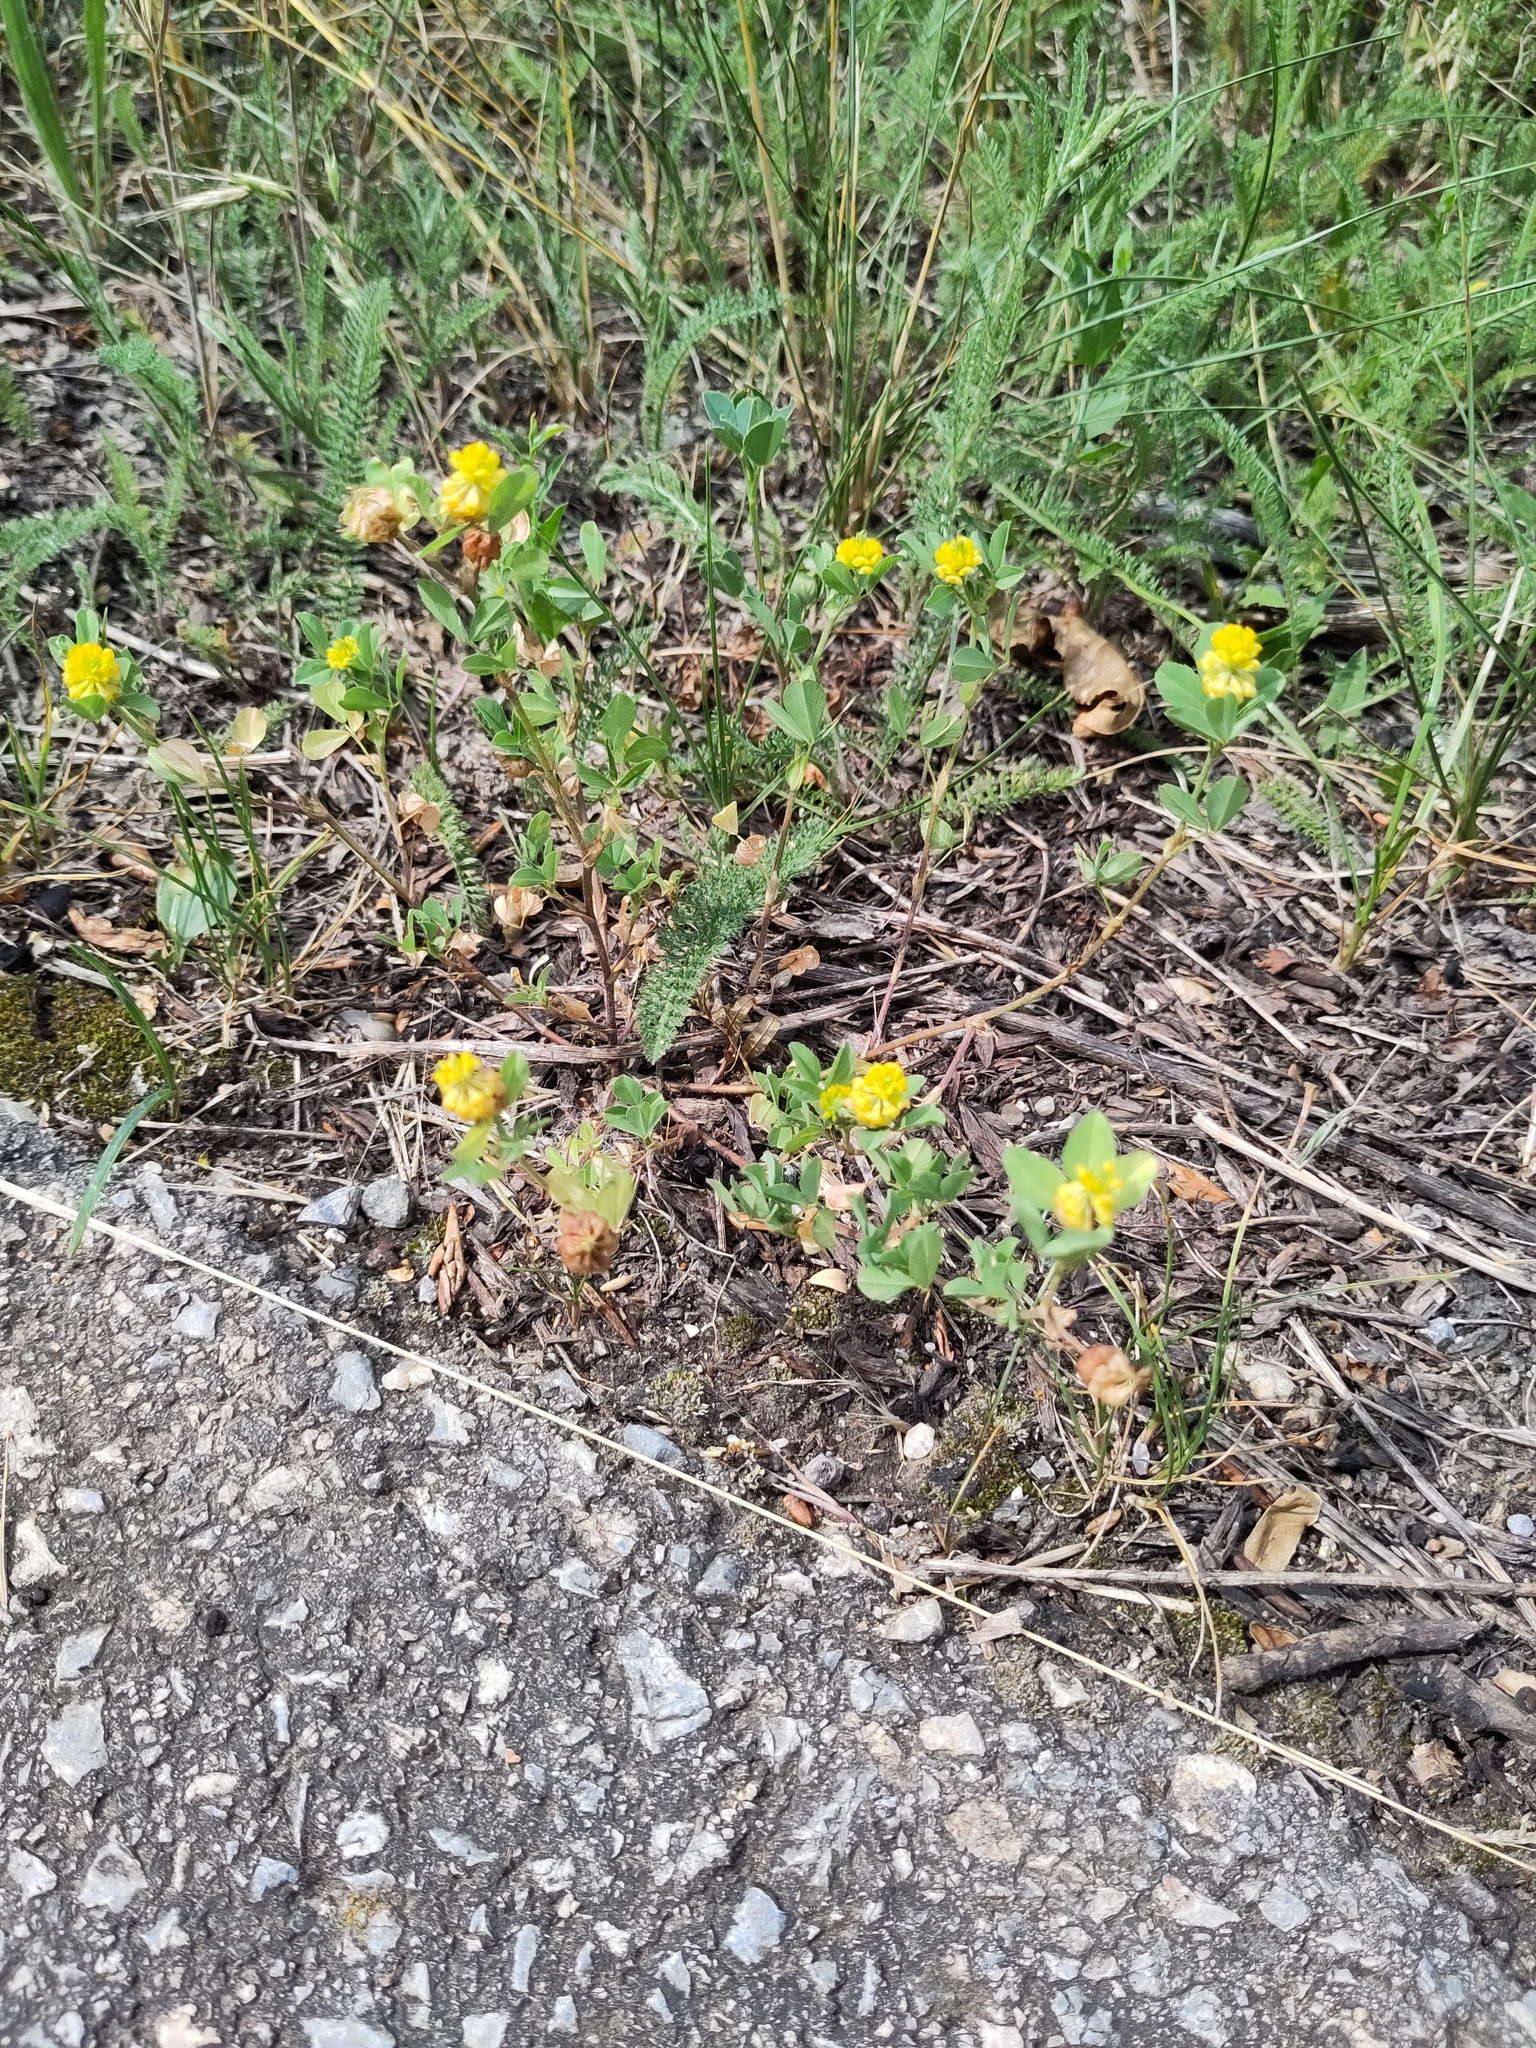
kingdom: Plantae
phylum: Tracheophyta
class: Magnoliopsida
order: Fabales
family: Fabaceae
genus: Trifolium
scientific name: Trifolium campestre
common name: Field clover
